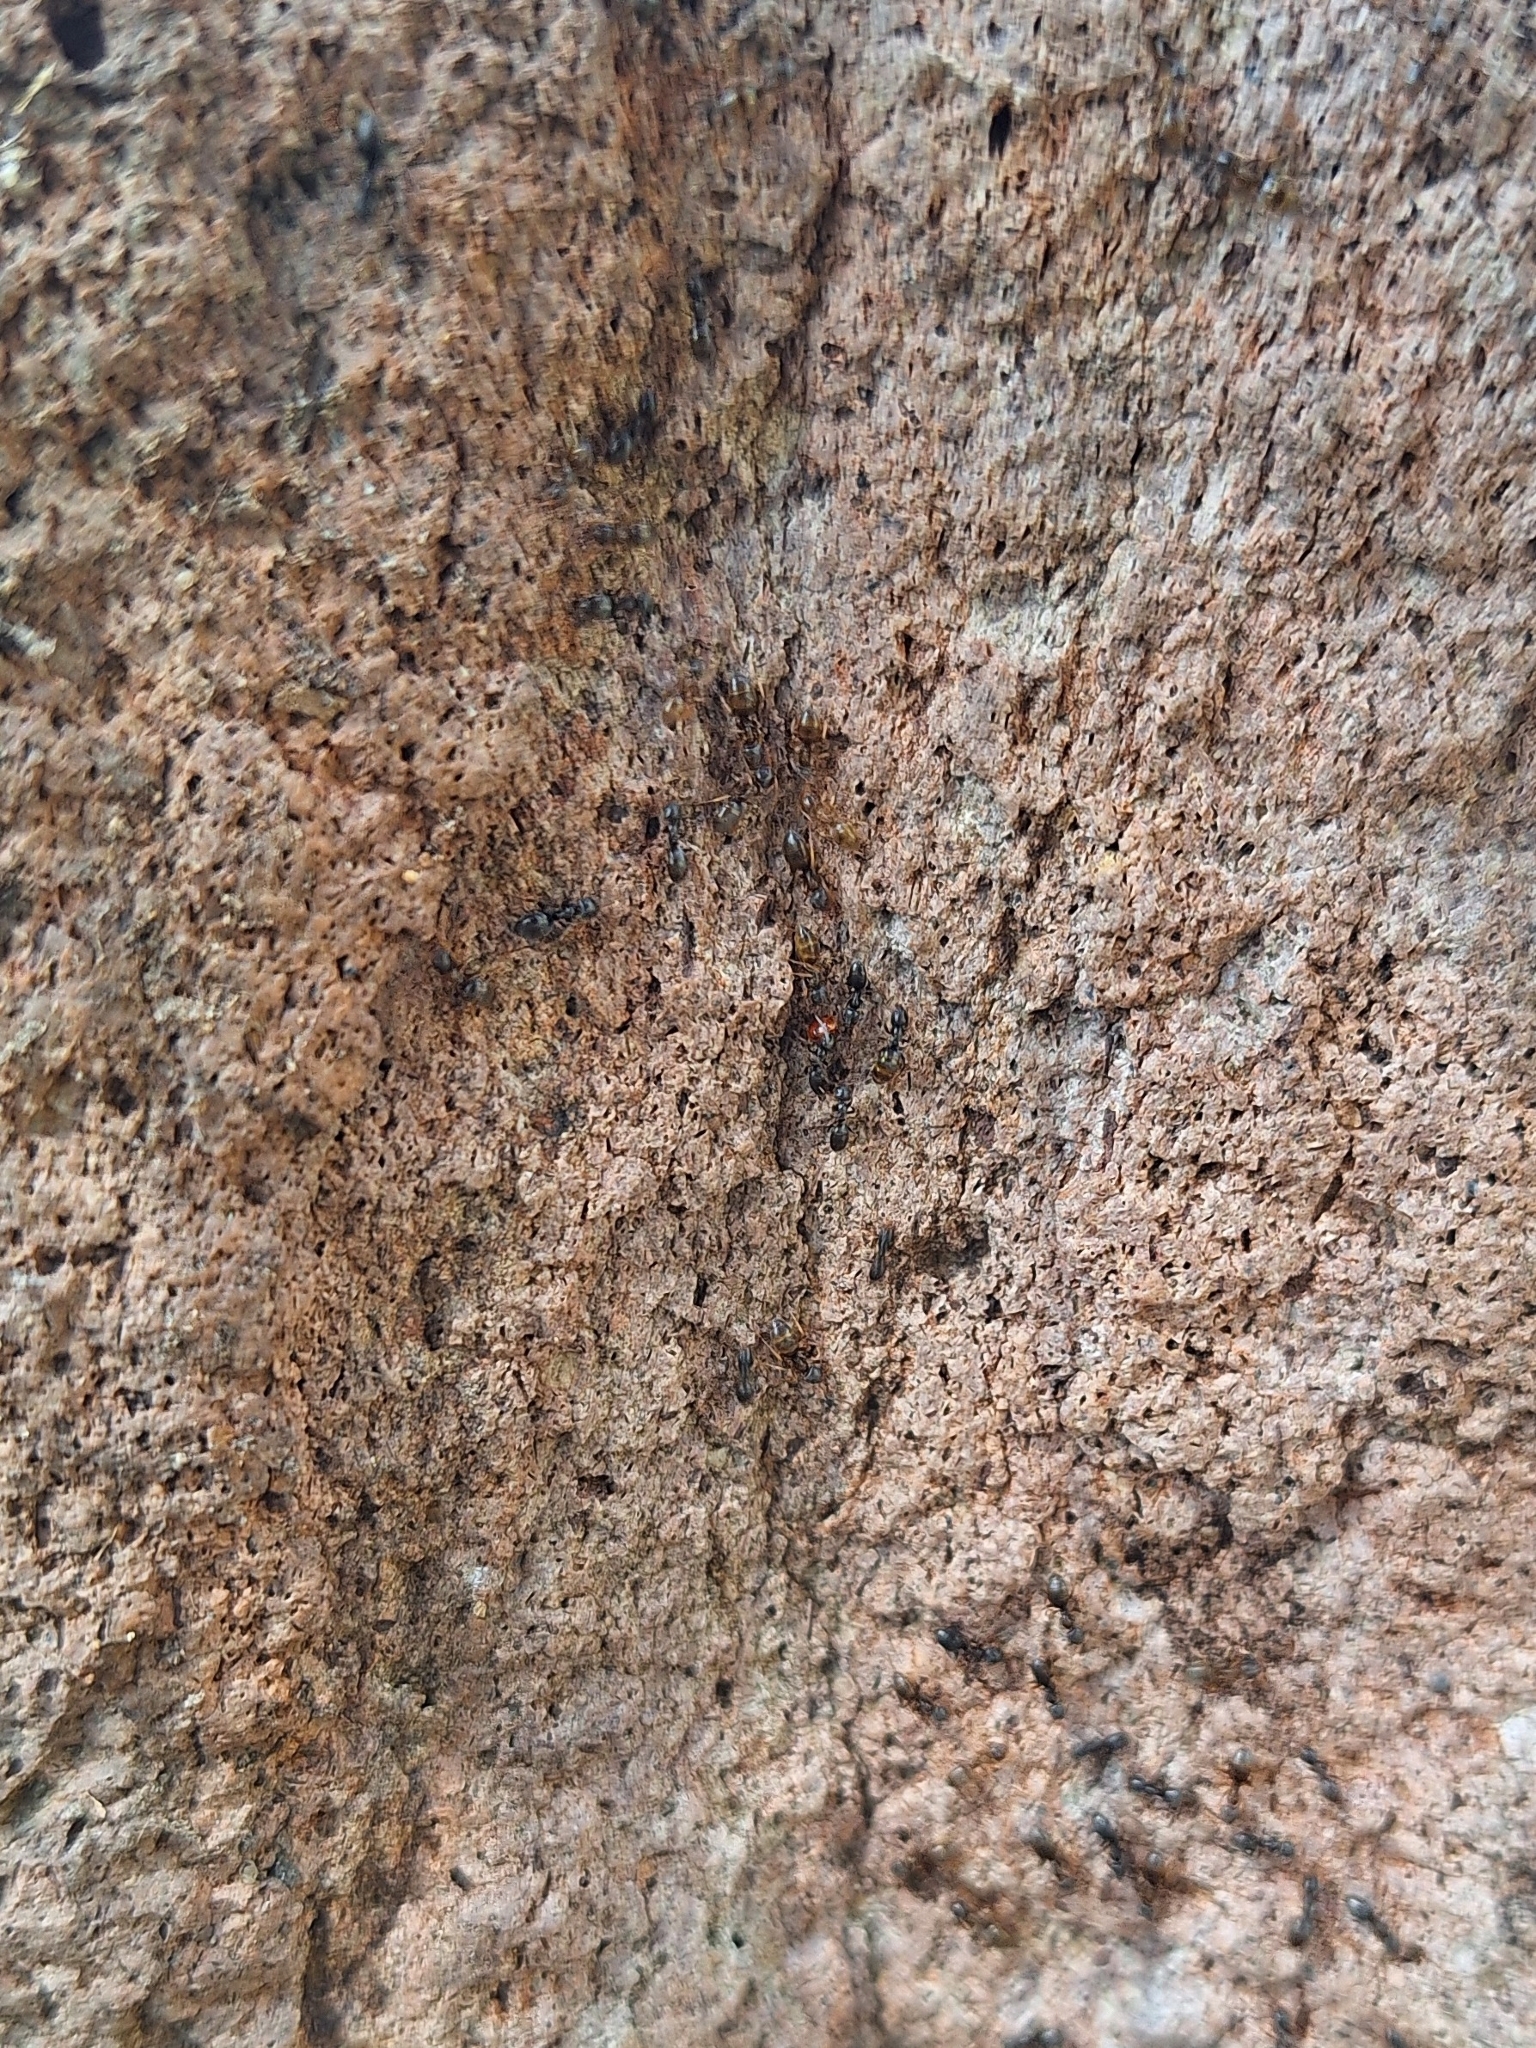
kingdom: Animalia
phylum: Arthropoda
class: Insecta
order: Hymenoptera
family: Formicidae
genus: Tapinoma
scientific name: Tapinoma sessile
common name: Odorous house ant
